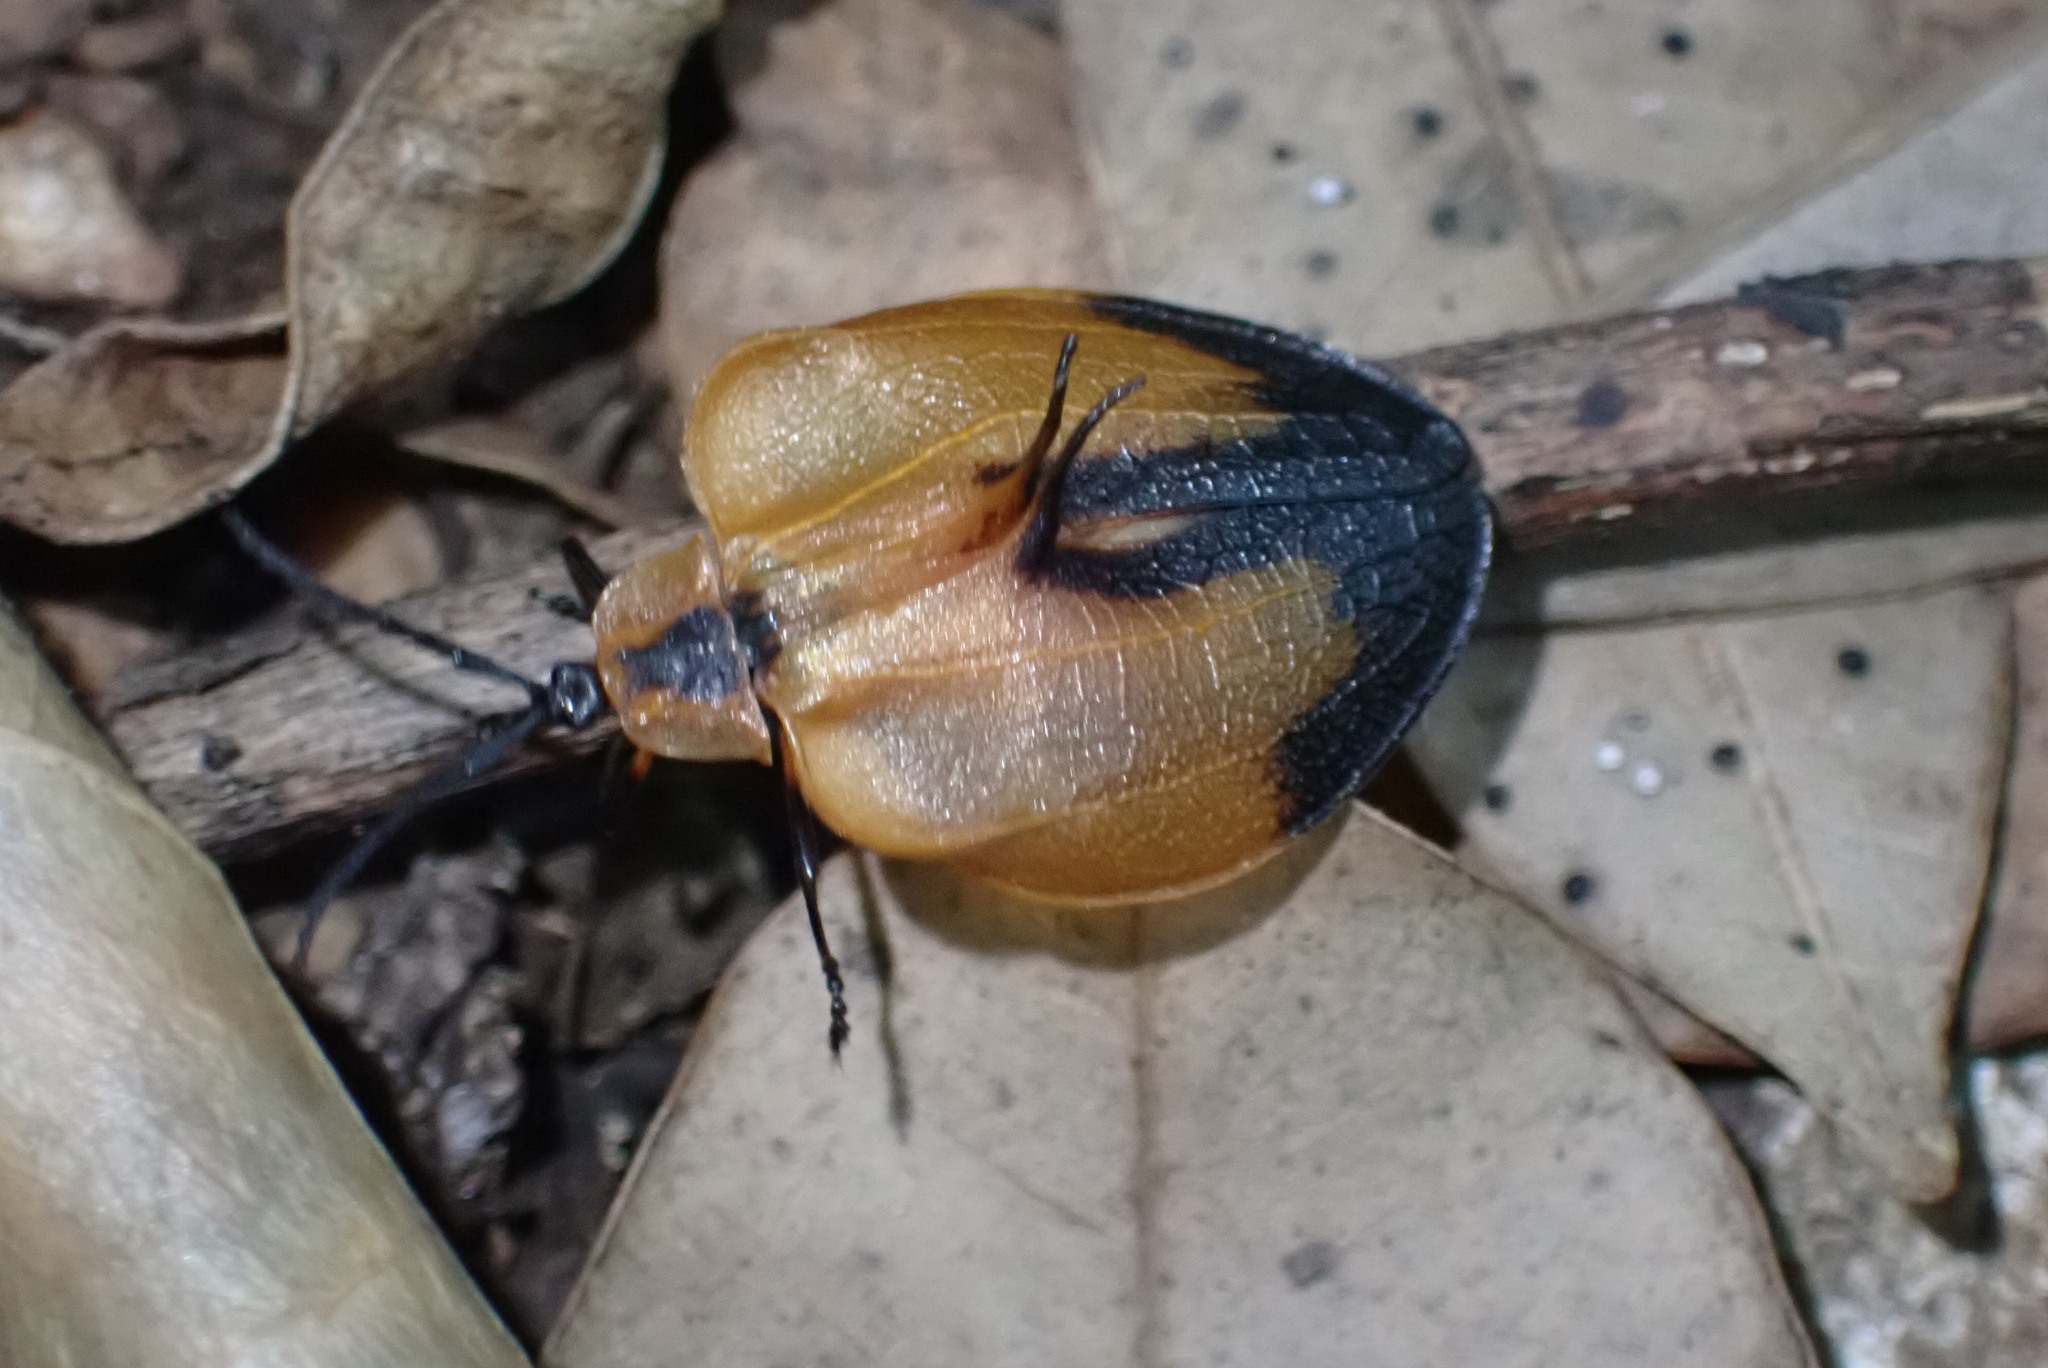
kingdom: Animalia
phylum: Arthropoda
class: Insecta
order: Coleoptera
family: Lycidae
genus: Lycus
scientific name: Lycus
